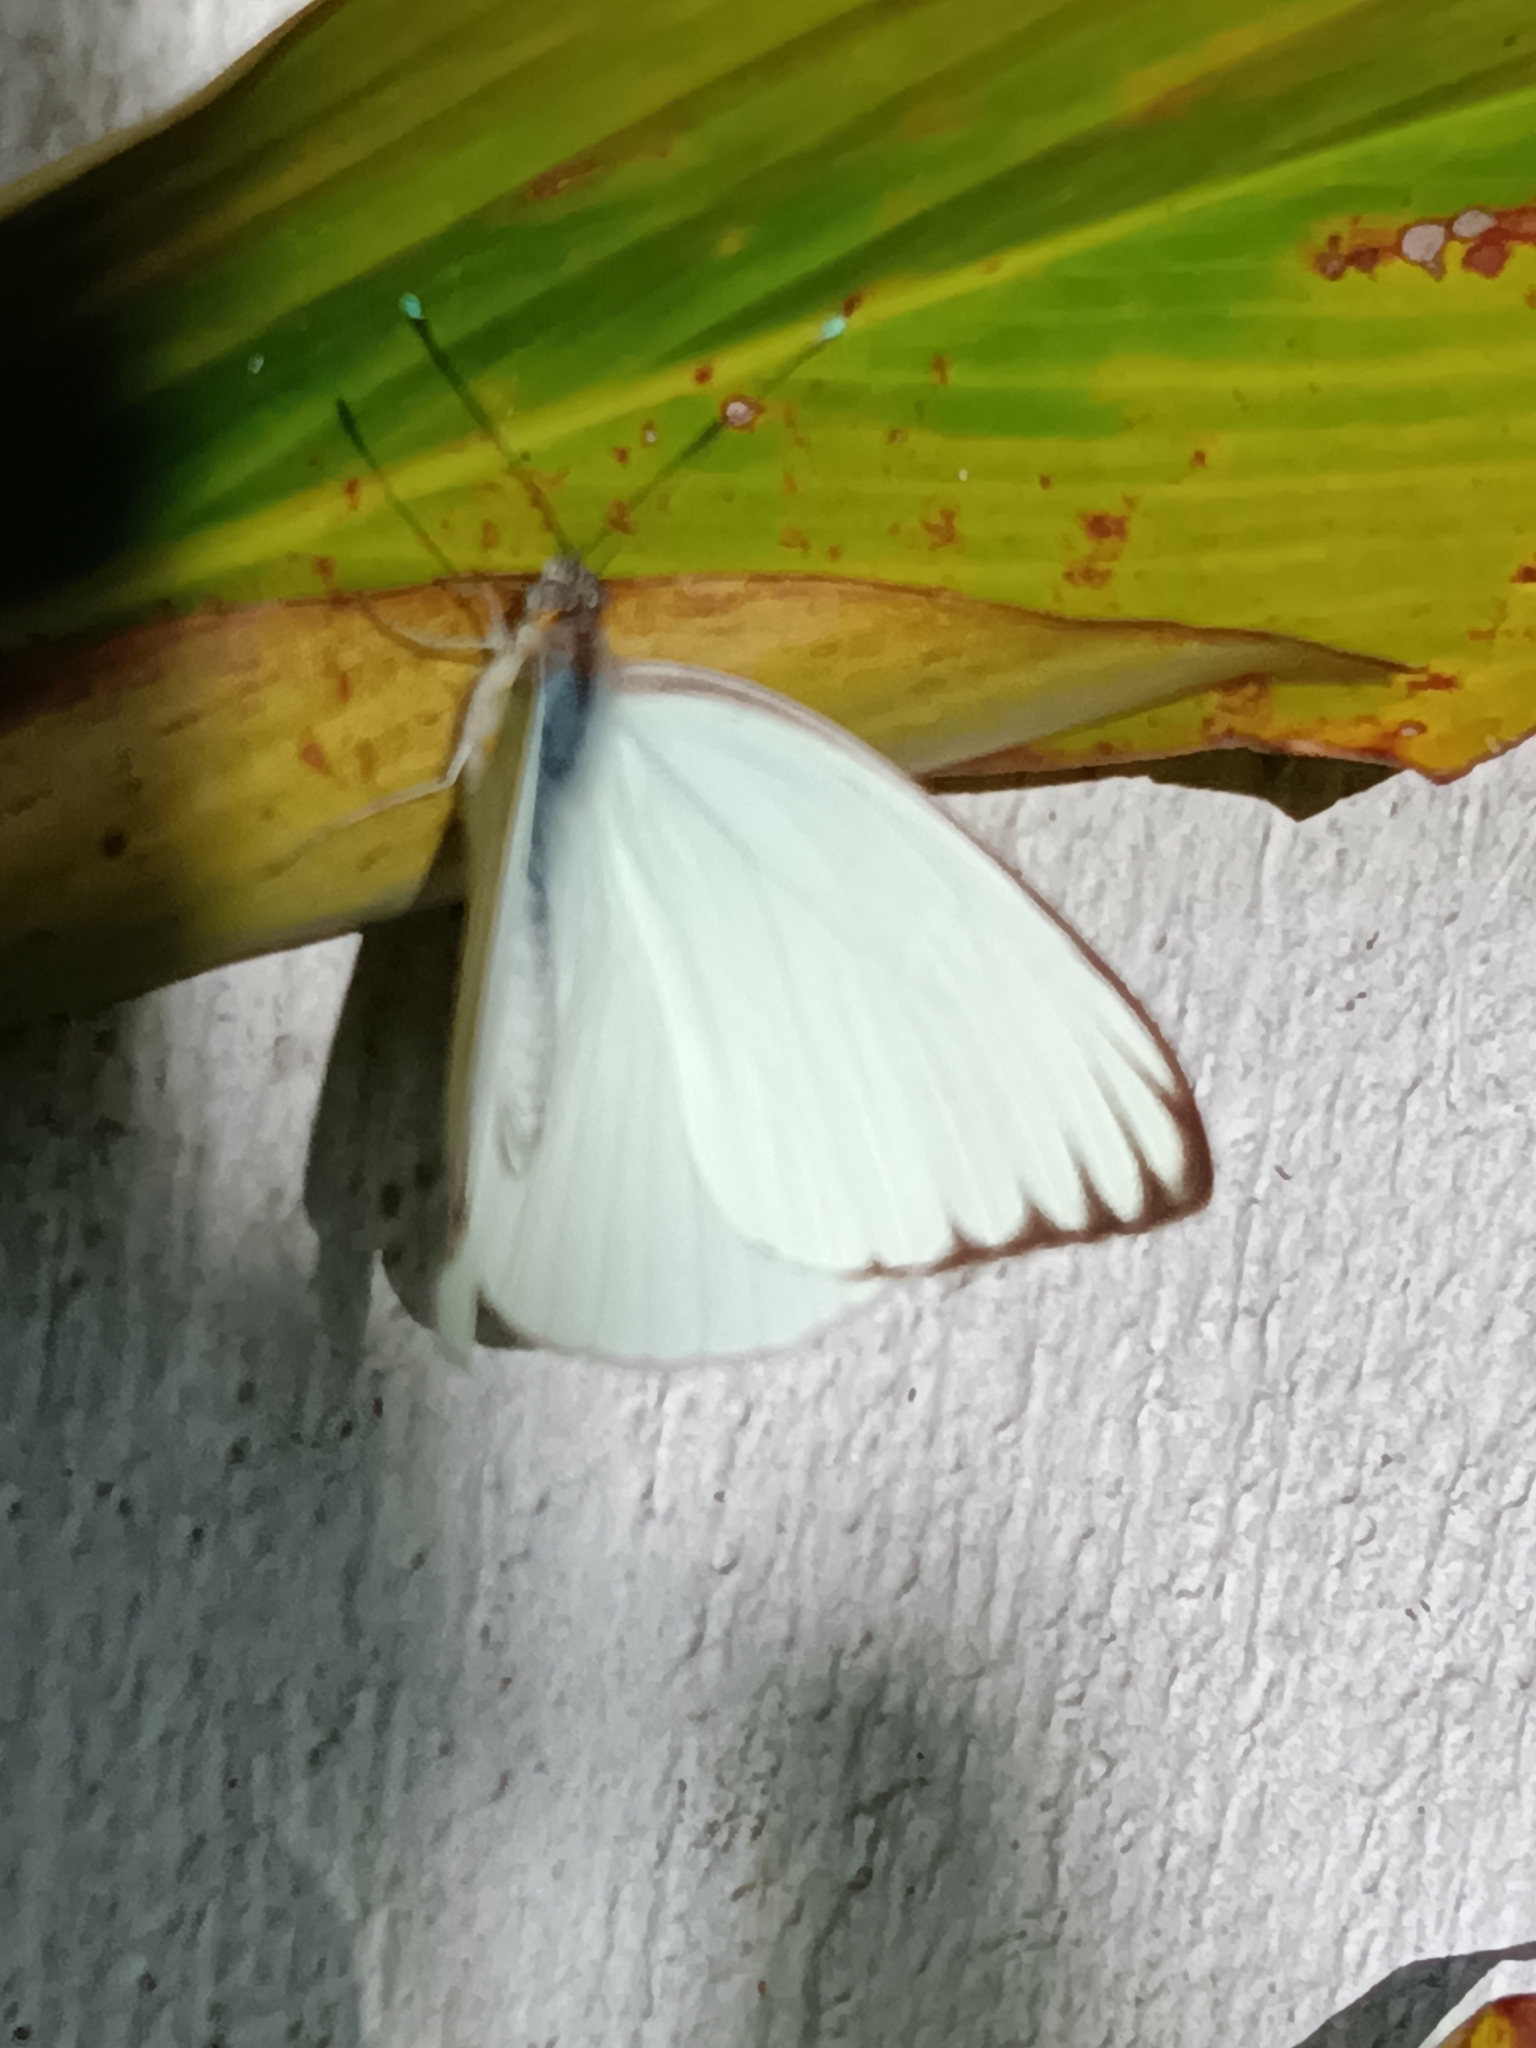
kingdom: Animalia
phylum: Arthropoda
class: Insecta
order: Lepidoptera
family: Pieridae
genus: Ascia
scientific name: Ascia monuste
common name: Great southern white
